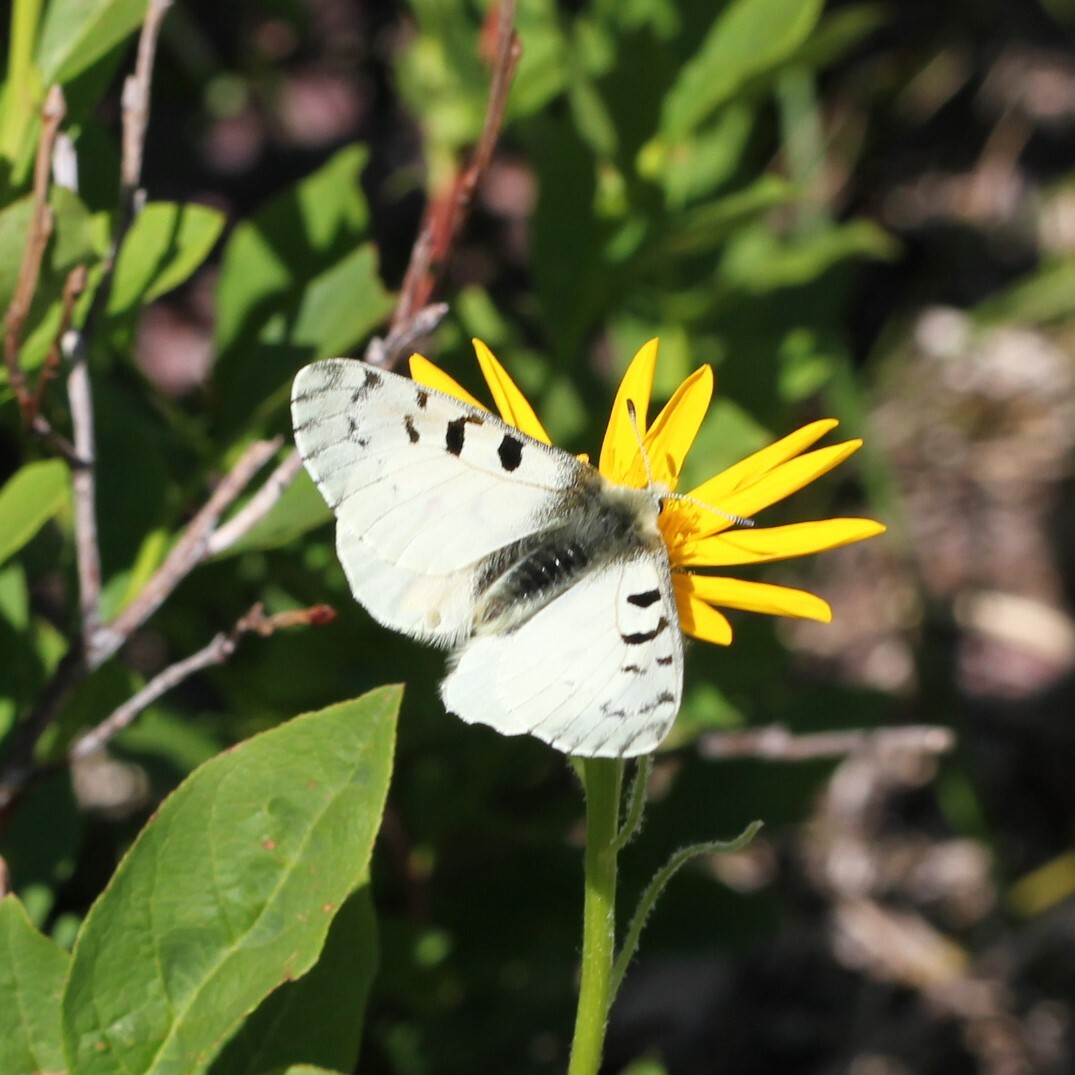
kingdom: Animalia
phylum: Arthropoda
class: Insecta
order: Lepidoptera
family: Papilionidae
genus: Parnassius
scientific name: Parnassius smintheus
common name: Mountain parnassian
